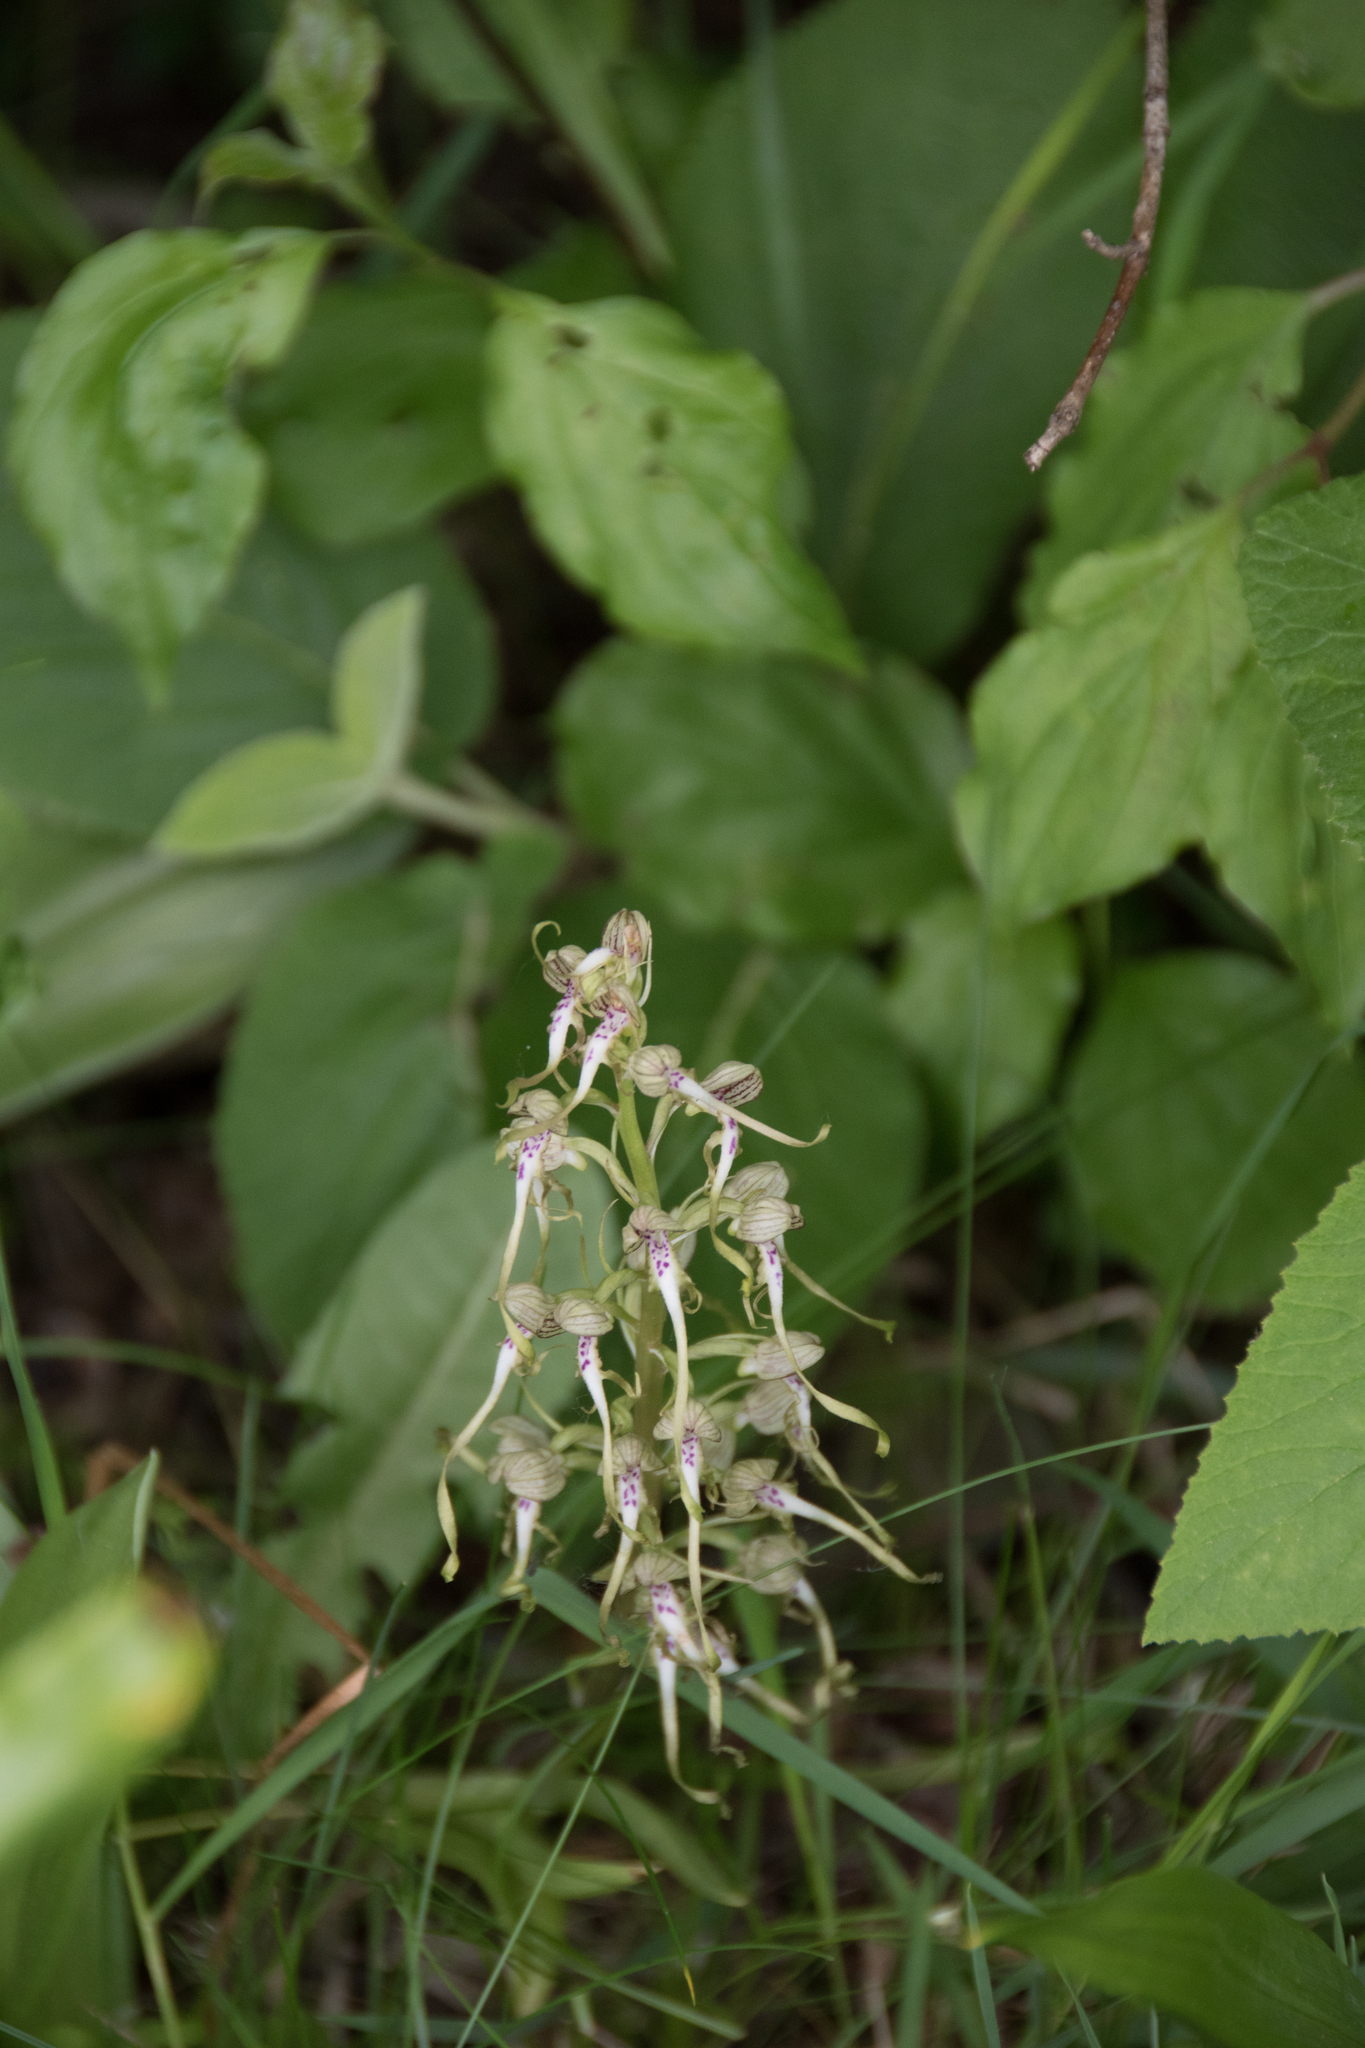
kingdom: Plantae
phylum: Tracheophyta
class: Liliopsida
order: Asparagales
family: Orchidaceae
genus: Himantoglossum
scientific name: Himantoglossum hircinum
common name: Lizard orchid
